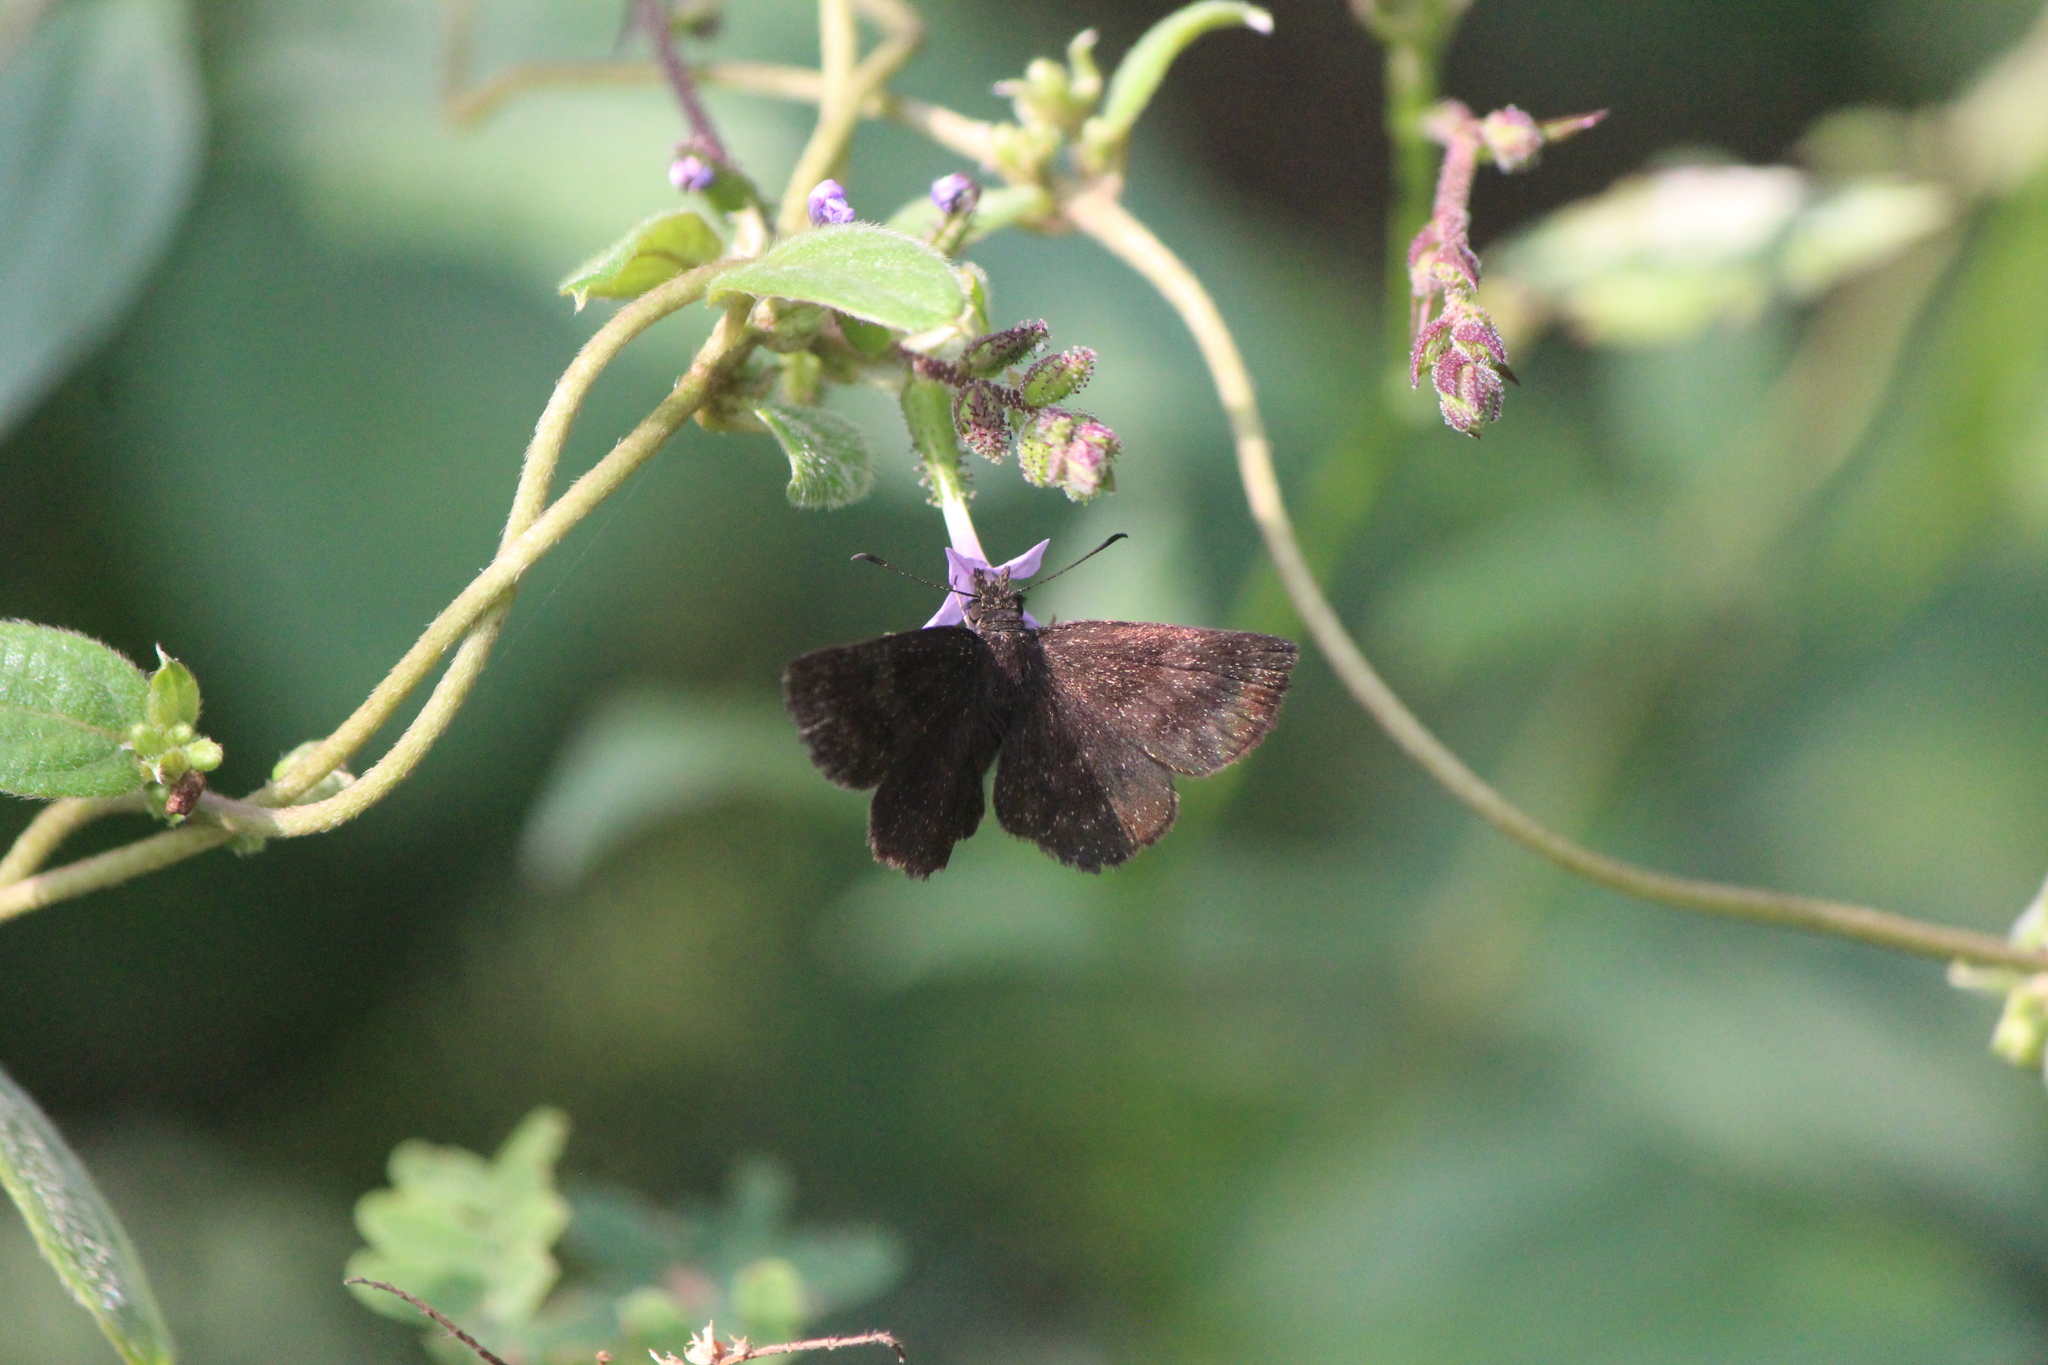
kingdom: Animalia
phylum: Arthropoda
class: Insecta
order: Lepidoptera
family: Hesperiidae
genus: Staphylus
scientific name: Staphylus vincula
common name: Mountain sootywing
